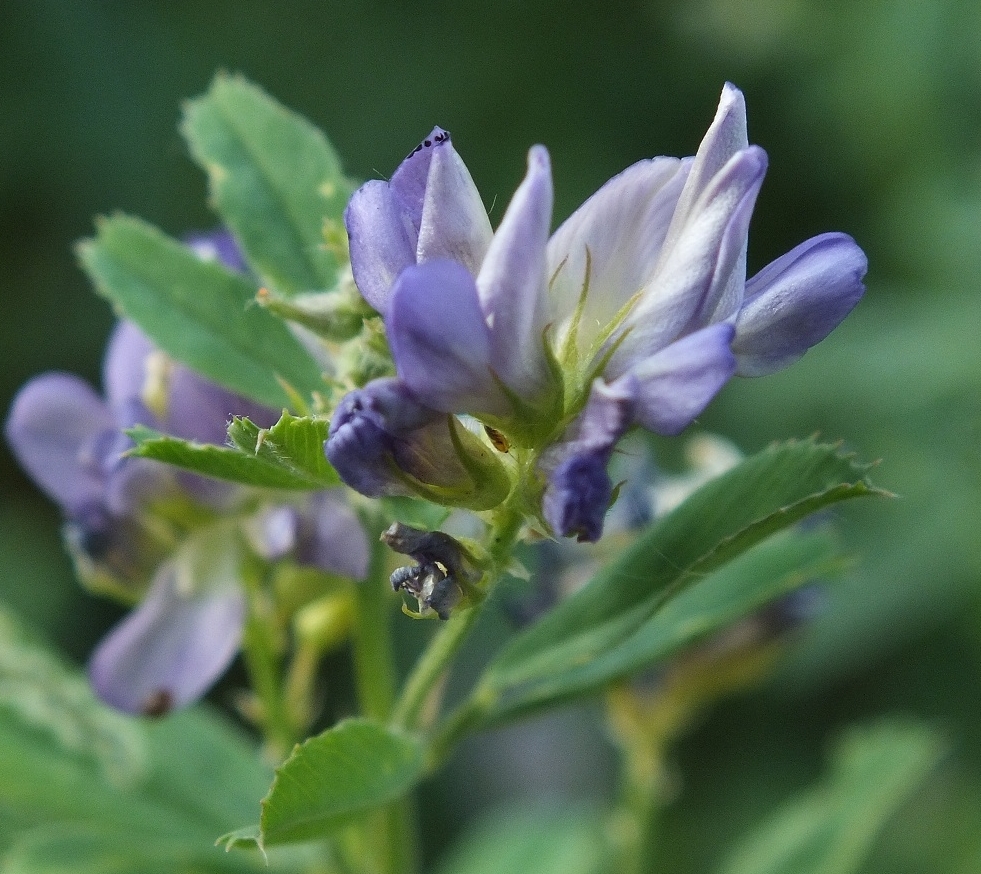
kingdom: Plantae
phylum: Tracheophyta
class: Magnoliopsida
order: Fabales
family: Fabaceae
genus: Medicago
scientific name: Medicago sativa
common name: Alfalfa
